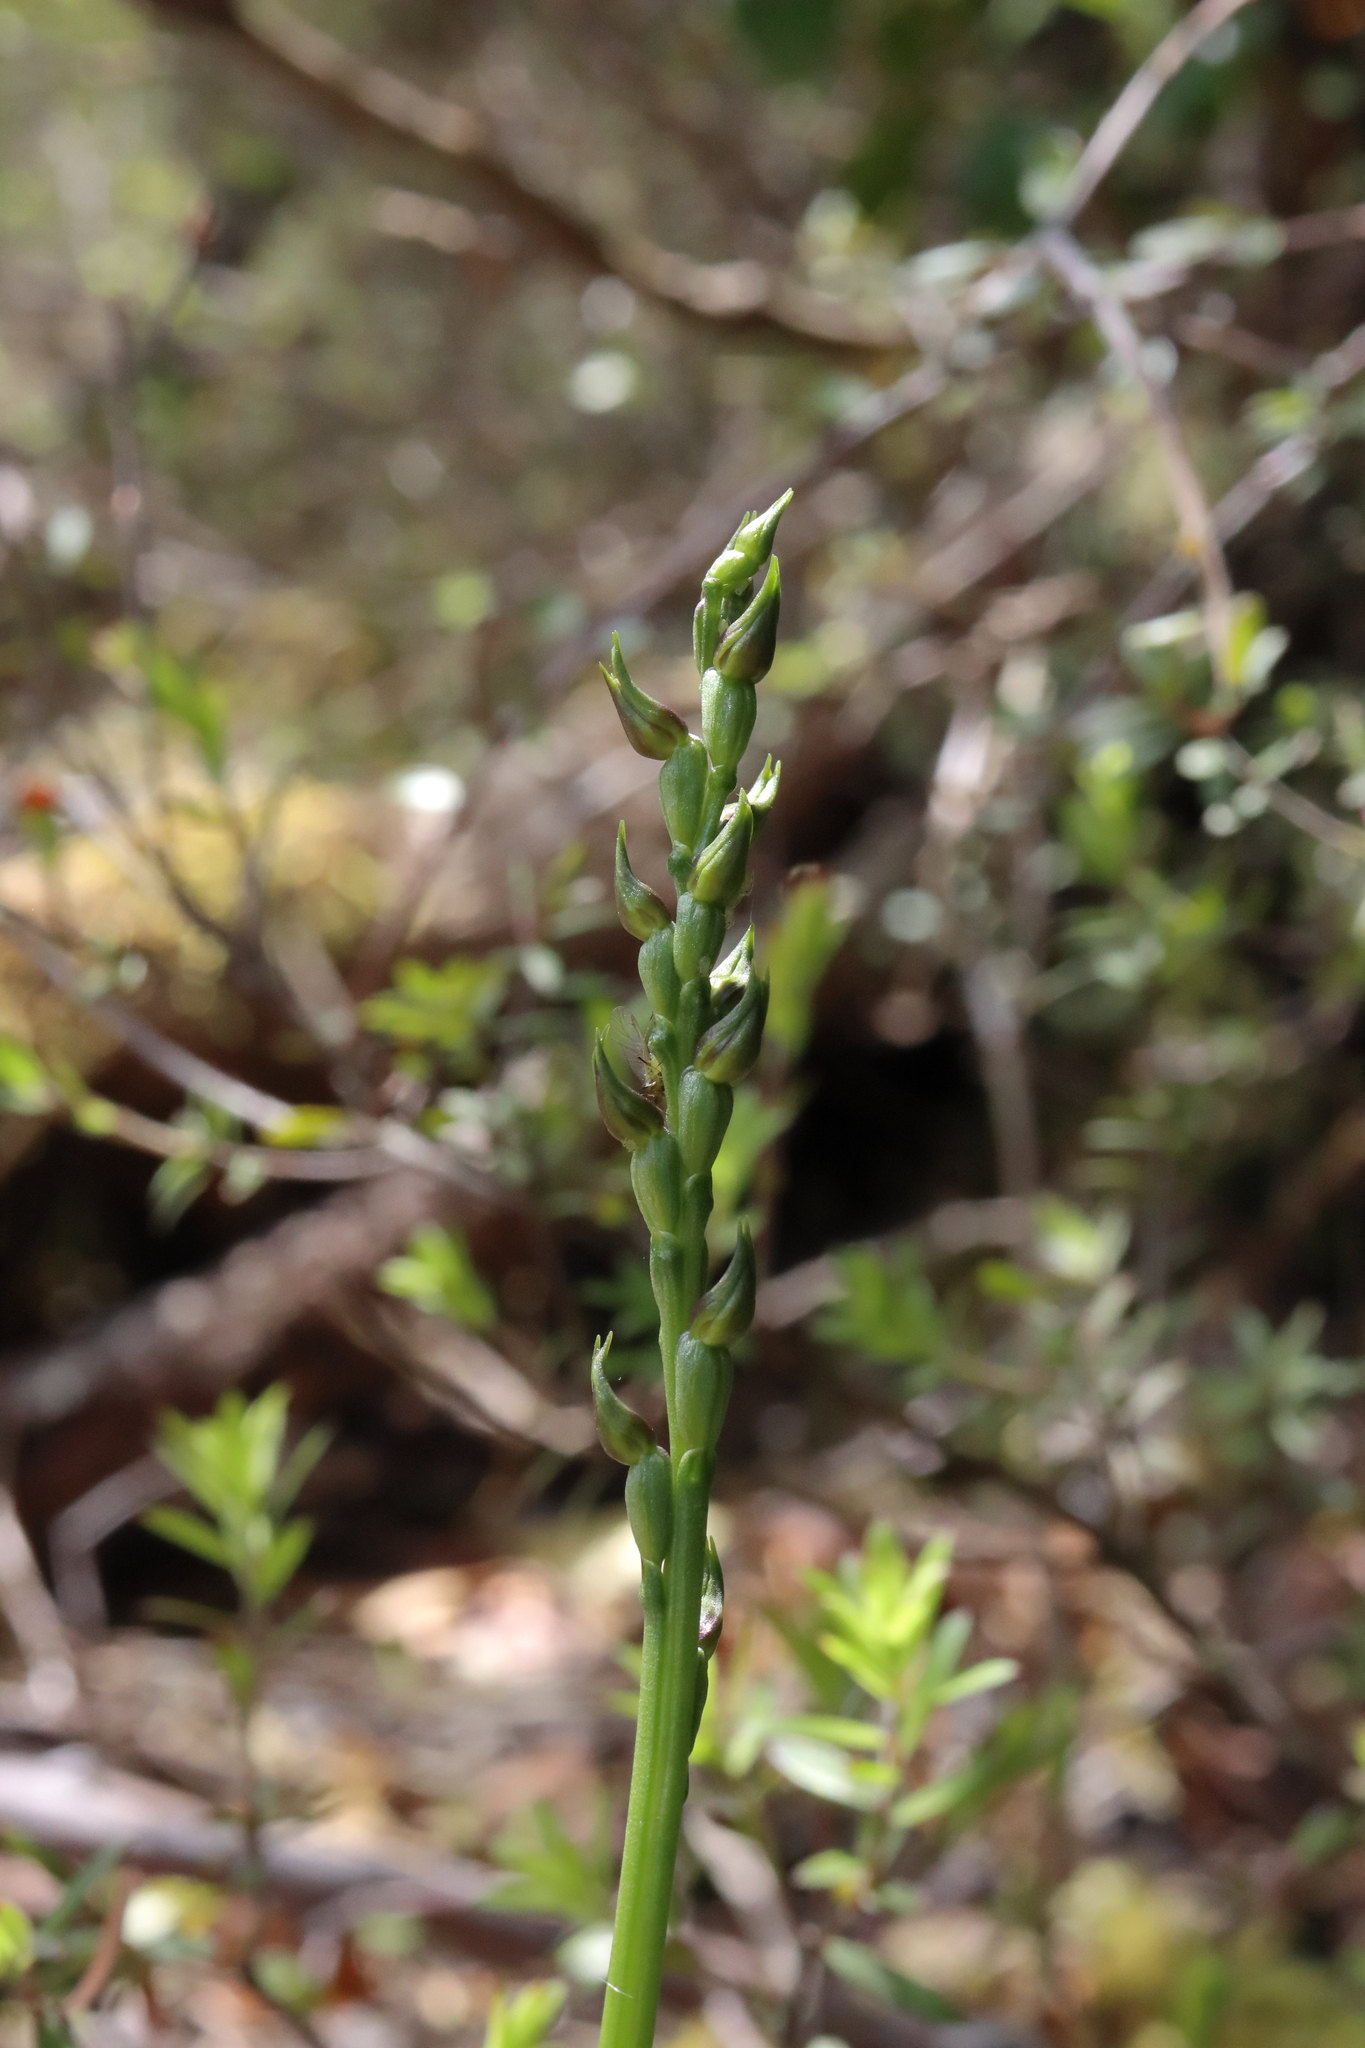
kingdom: Plantae
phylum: Tracheophyta
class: Liliopsida
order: Asparagales
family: Orchidaceae
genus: Prasophyllum
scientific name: Prasophyllum colensoi
